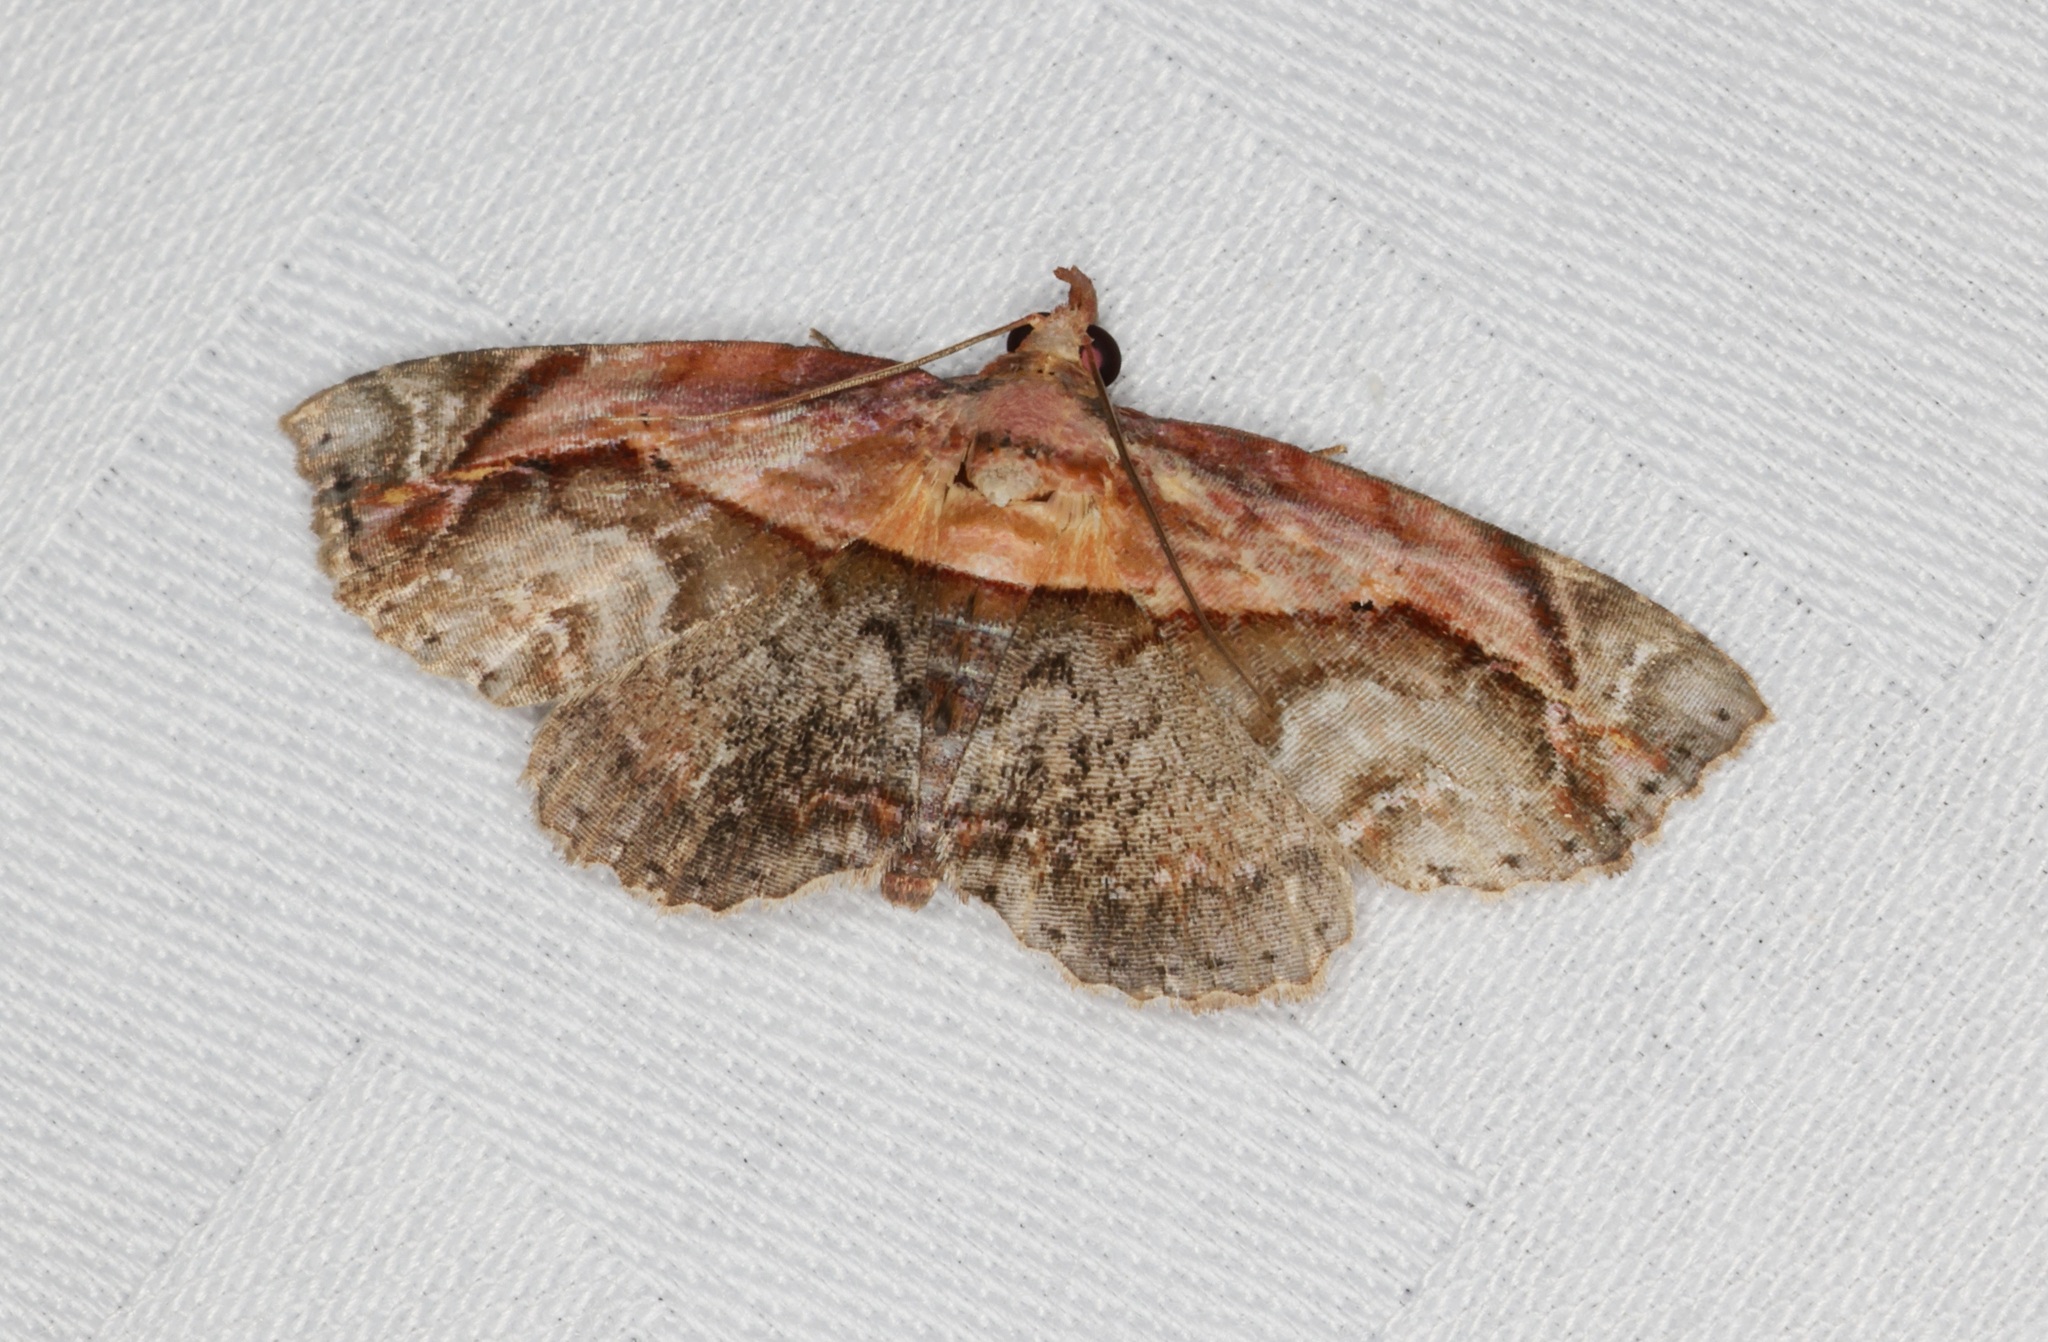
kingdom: Animalia
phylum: Arthropoda
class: Insecta
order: Lepidoptera
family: Noctuidae
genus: Lophoruza
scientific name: Lophoruza pulcherrima
